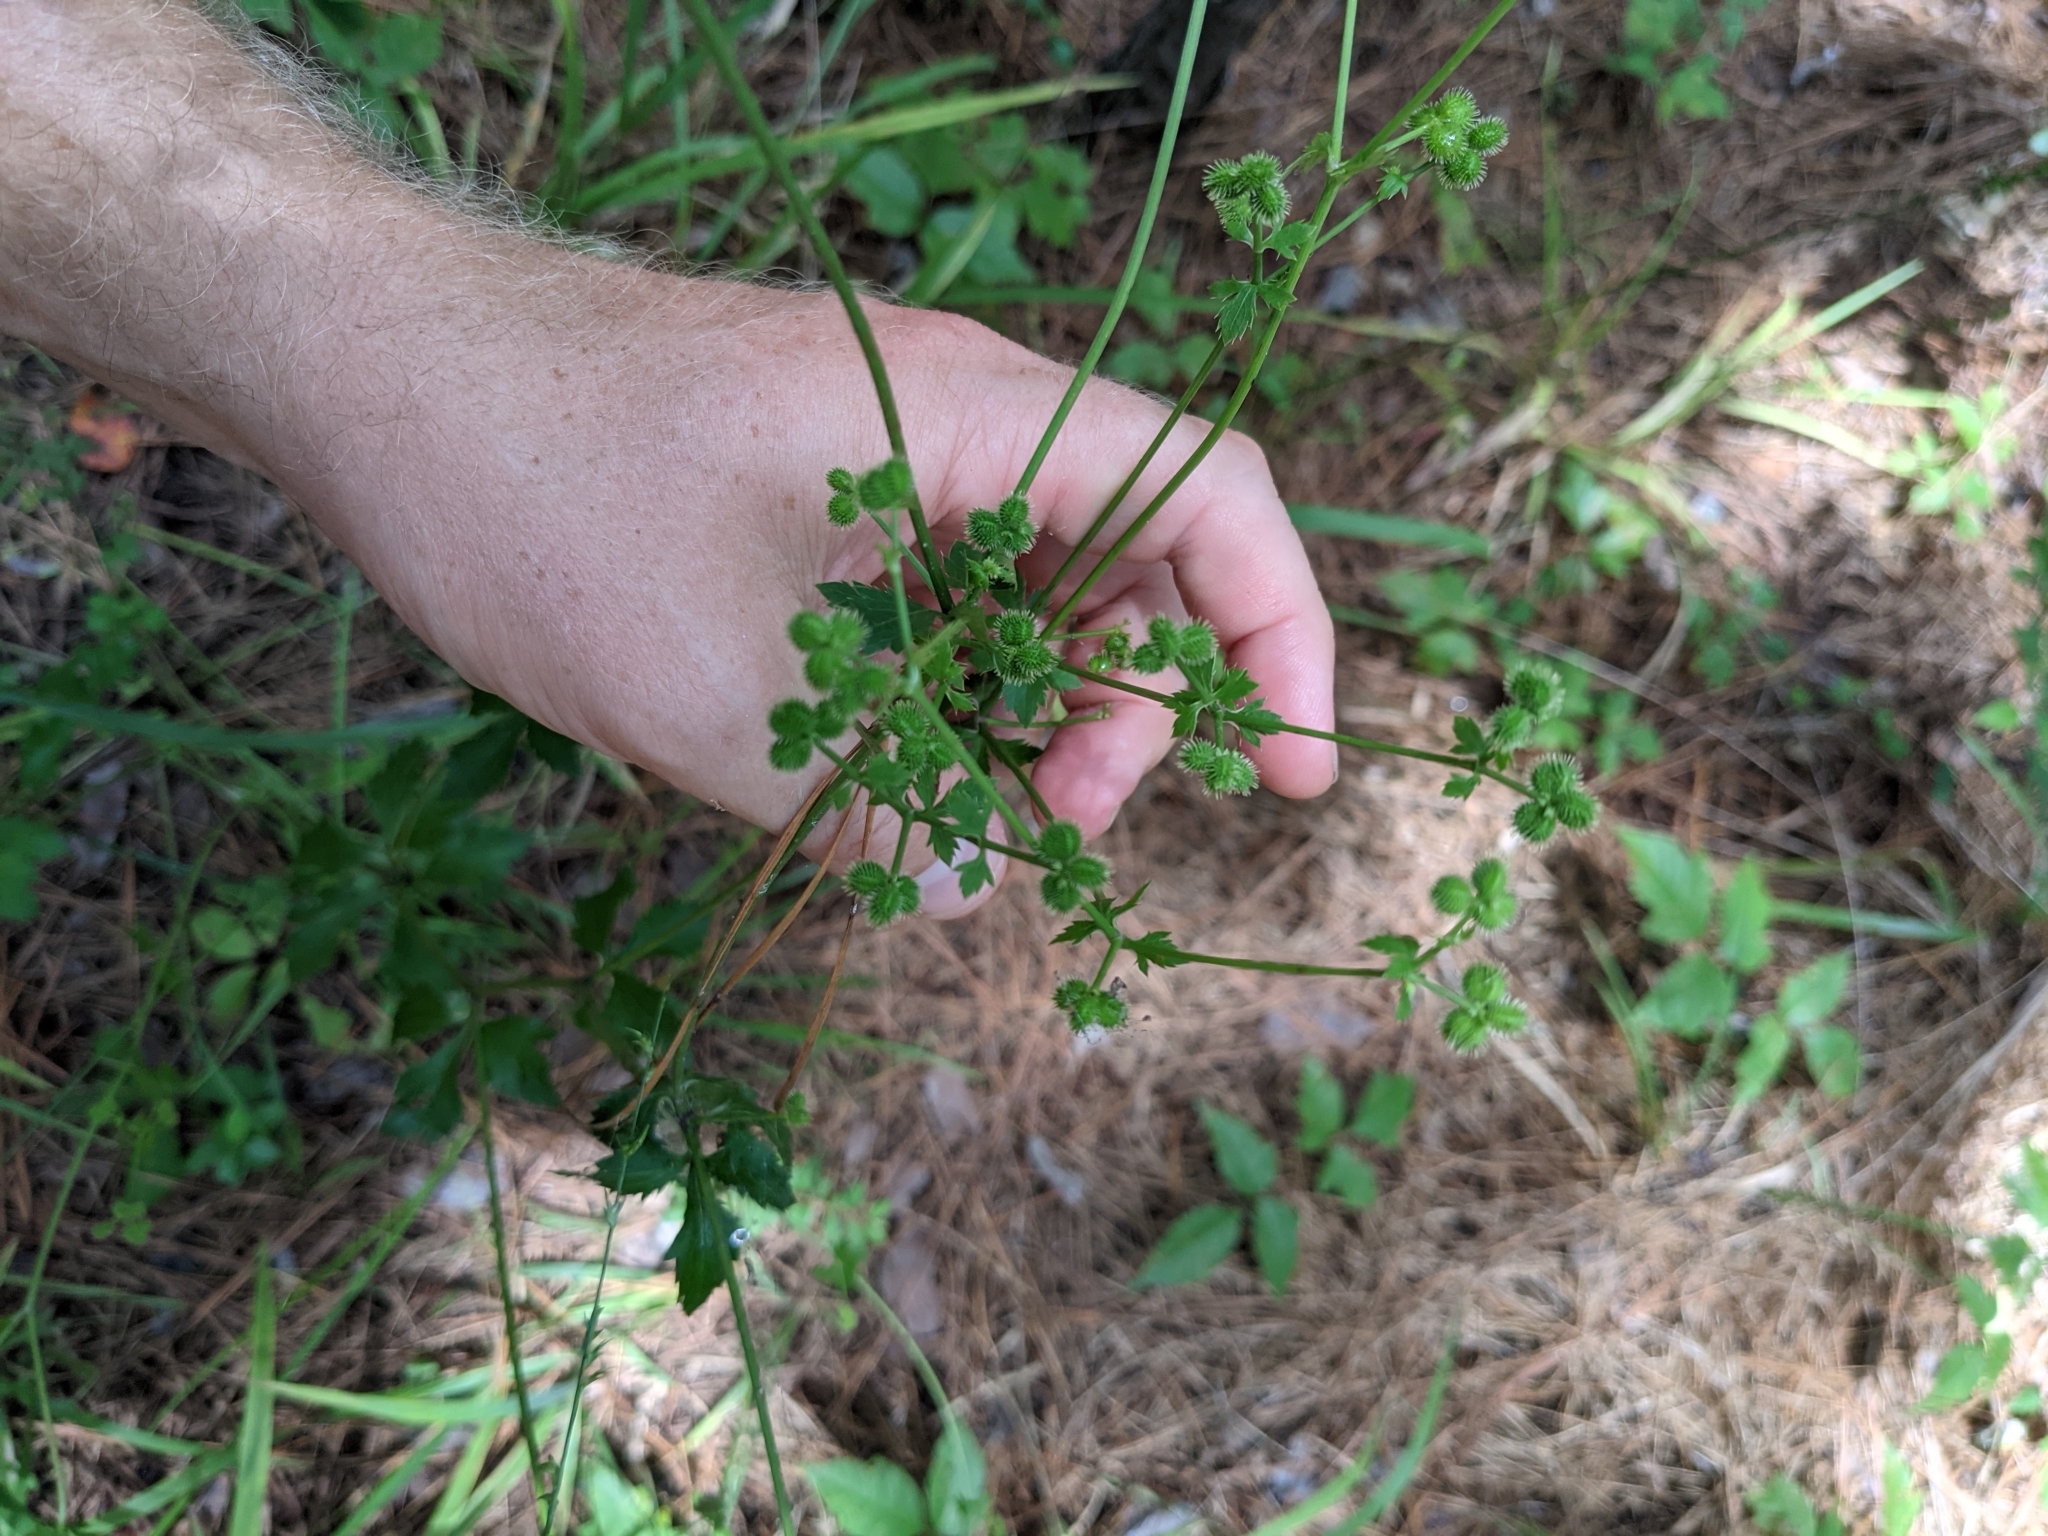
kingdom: Plantae
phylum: Tracheophyta
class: Magnoliopsida
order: Apiales
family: Apiaceae
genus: Sanicula
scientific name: Sanicula canadensis
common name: Canada sanicle
